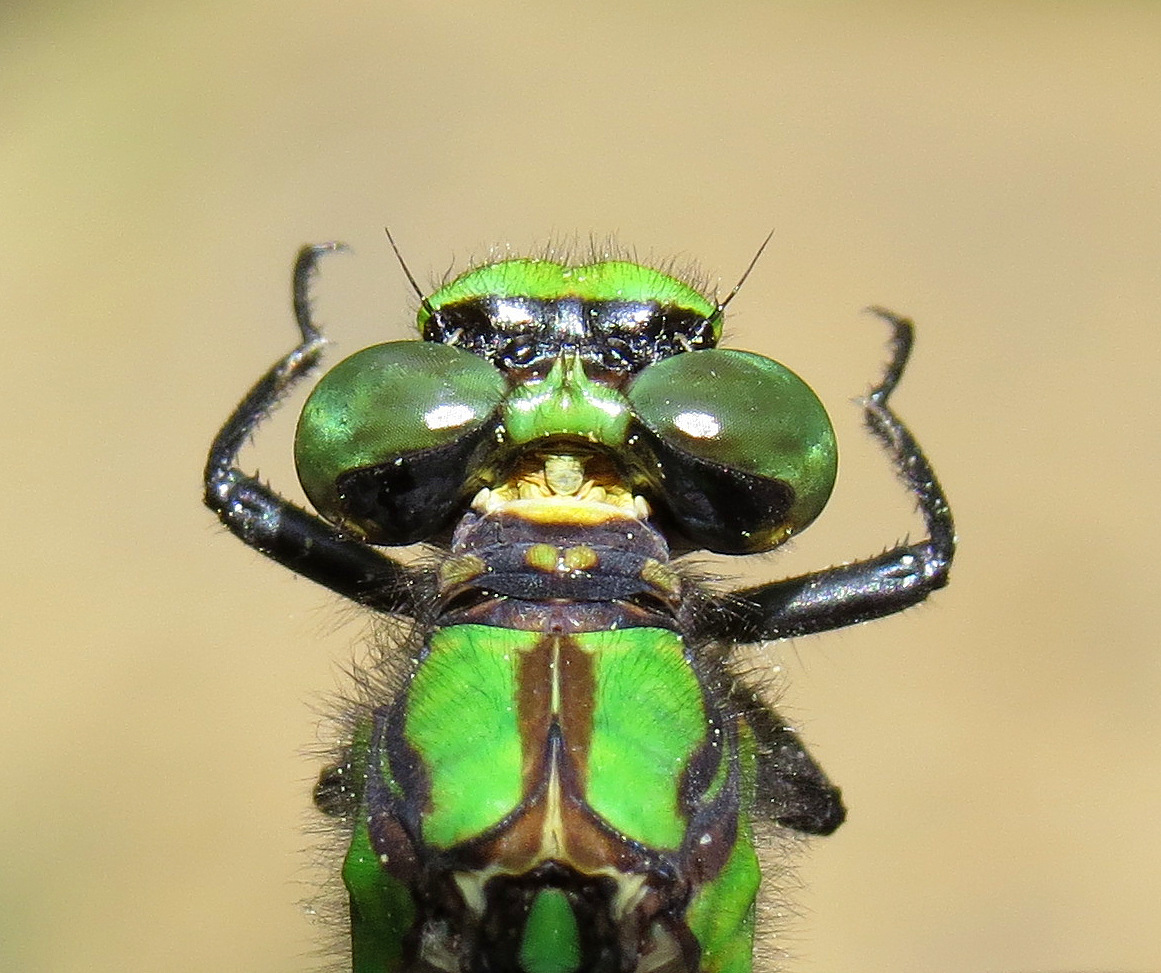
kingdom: Animalia
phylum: Arthropoda
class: Insecta
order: Odonata
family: Gomphidae
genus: Ophiogomphus
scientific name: Ophiogomphus mainensis
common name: Maine snaketail
